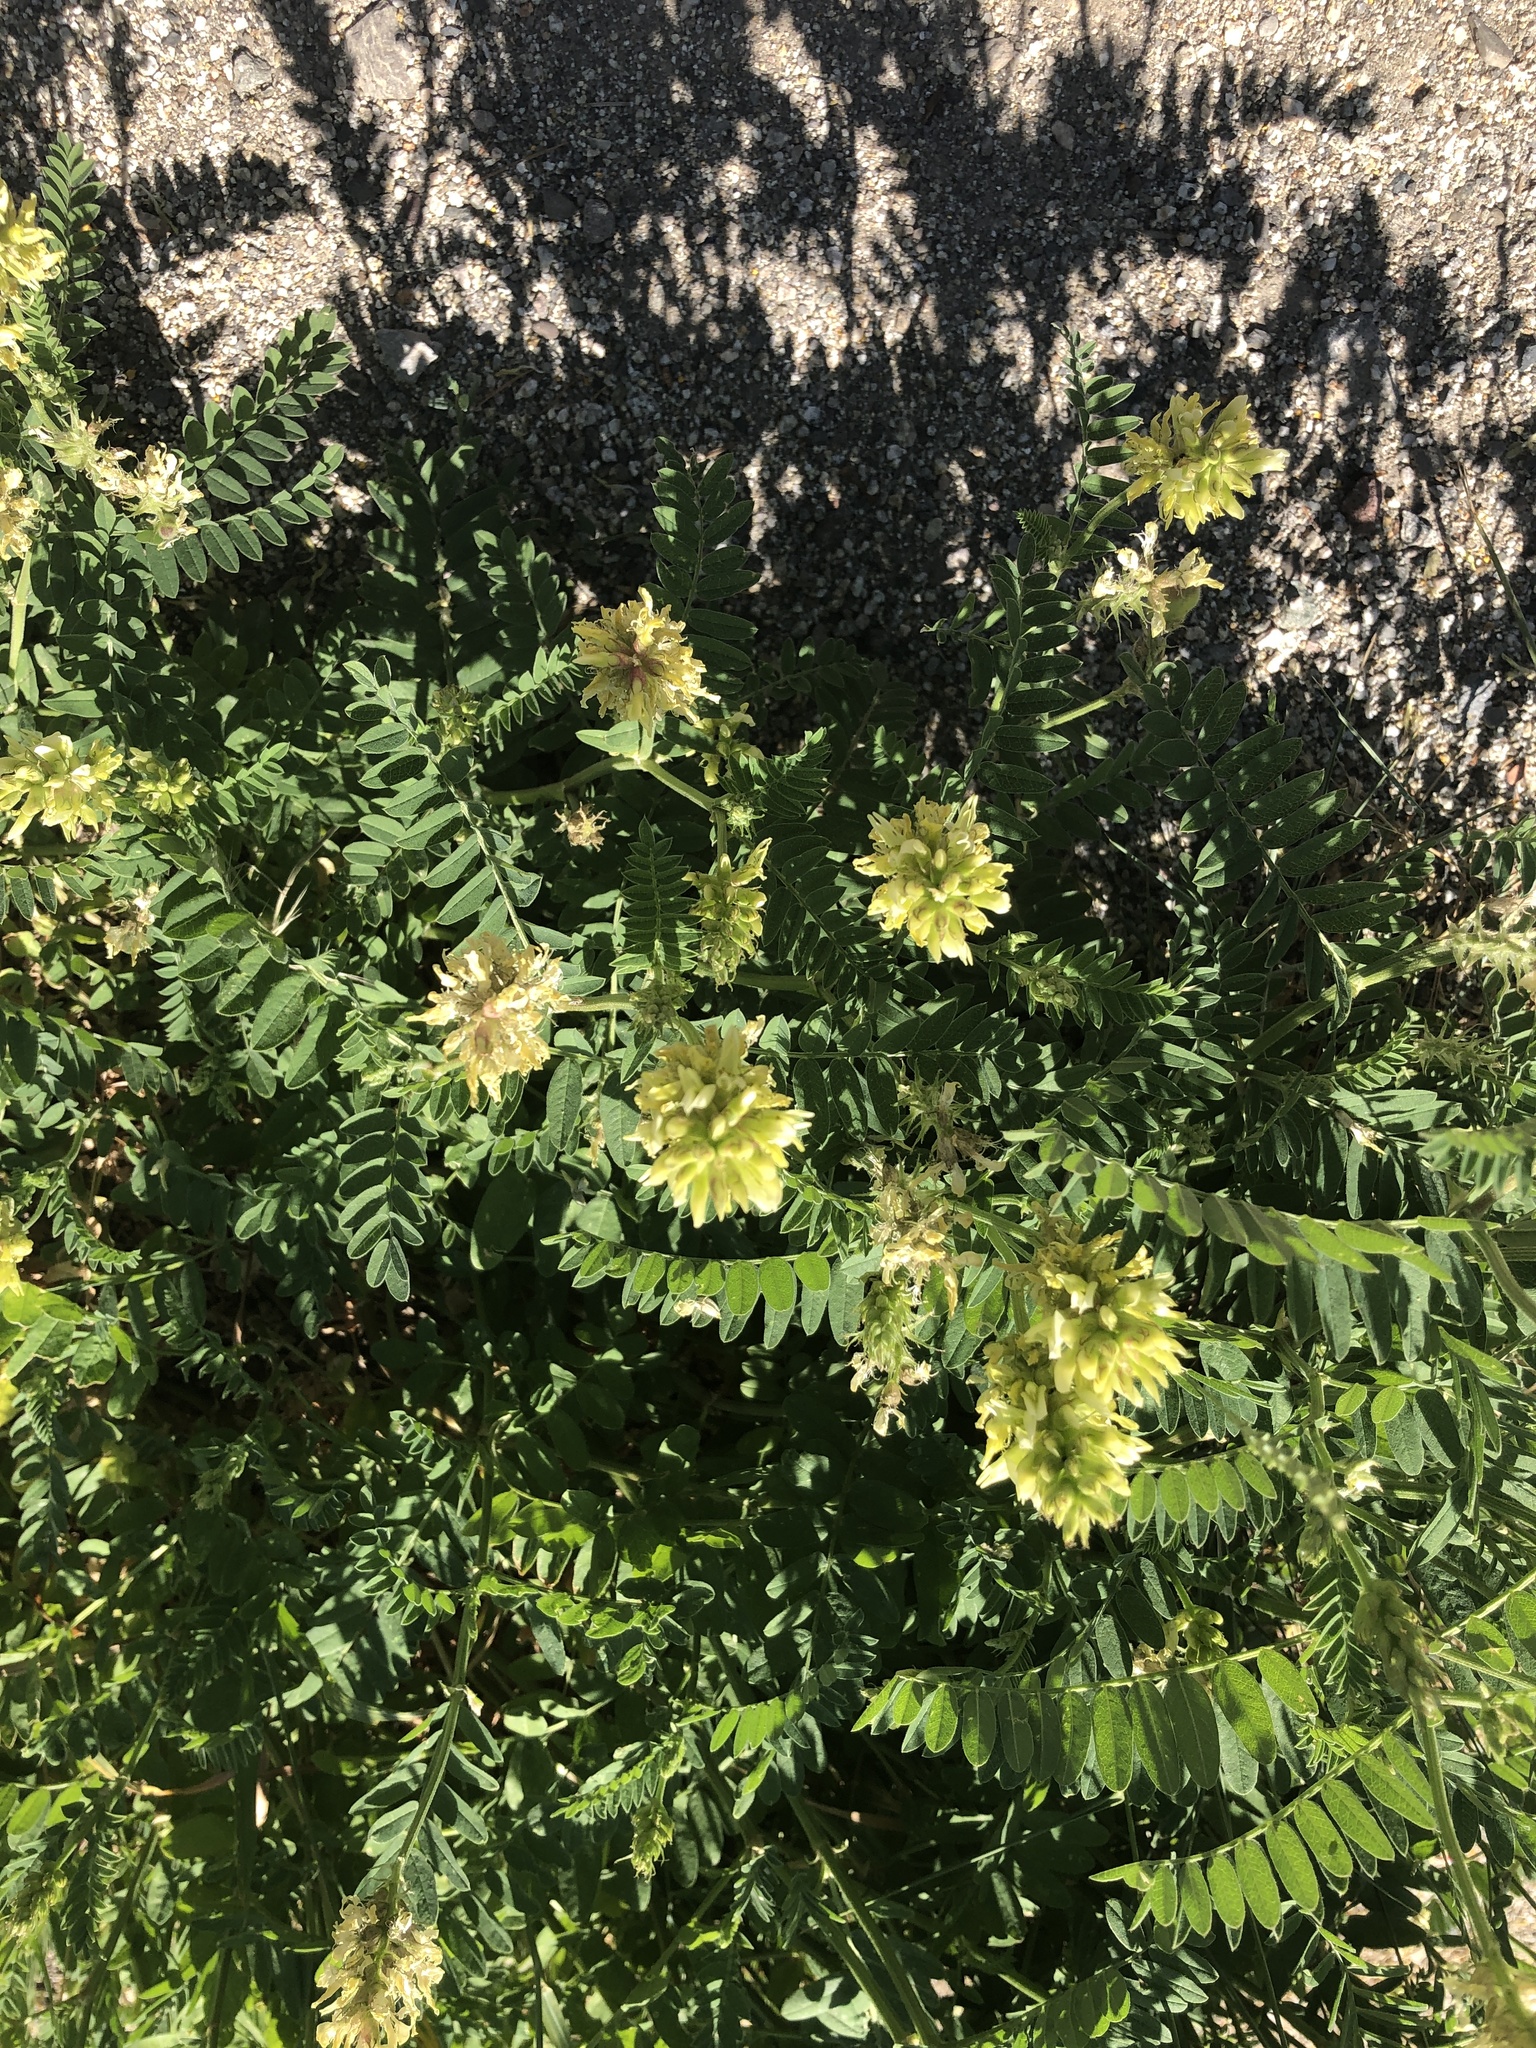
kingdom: Plantae
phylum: Tracheophyta
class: Magnoliopsida
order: Fabales
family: Fabaceae
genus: Astragalus
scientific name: Astragalus cicer
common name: Chick-pea milk-vetch
